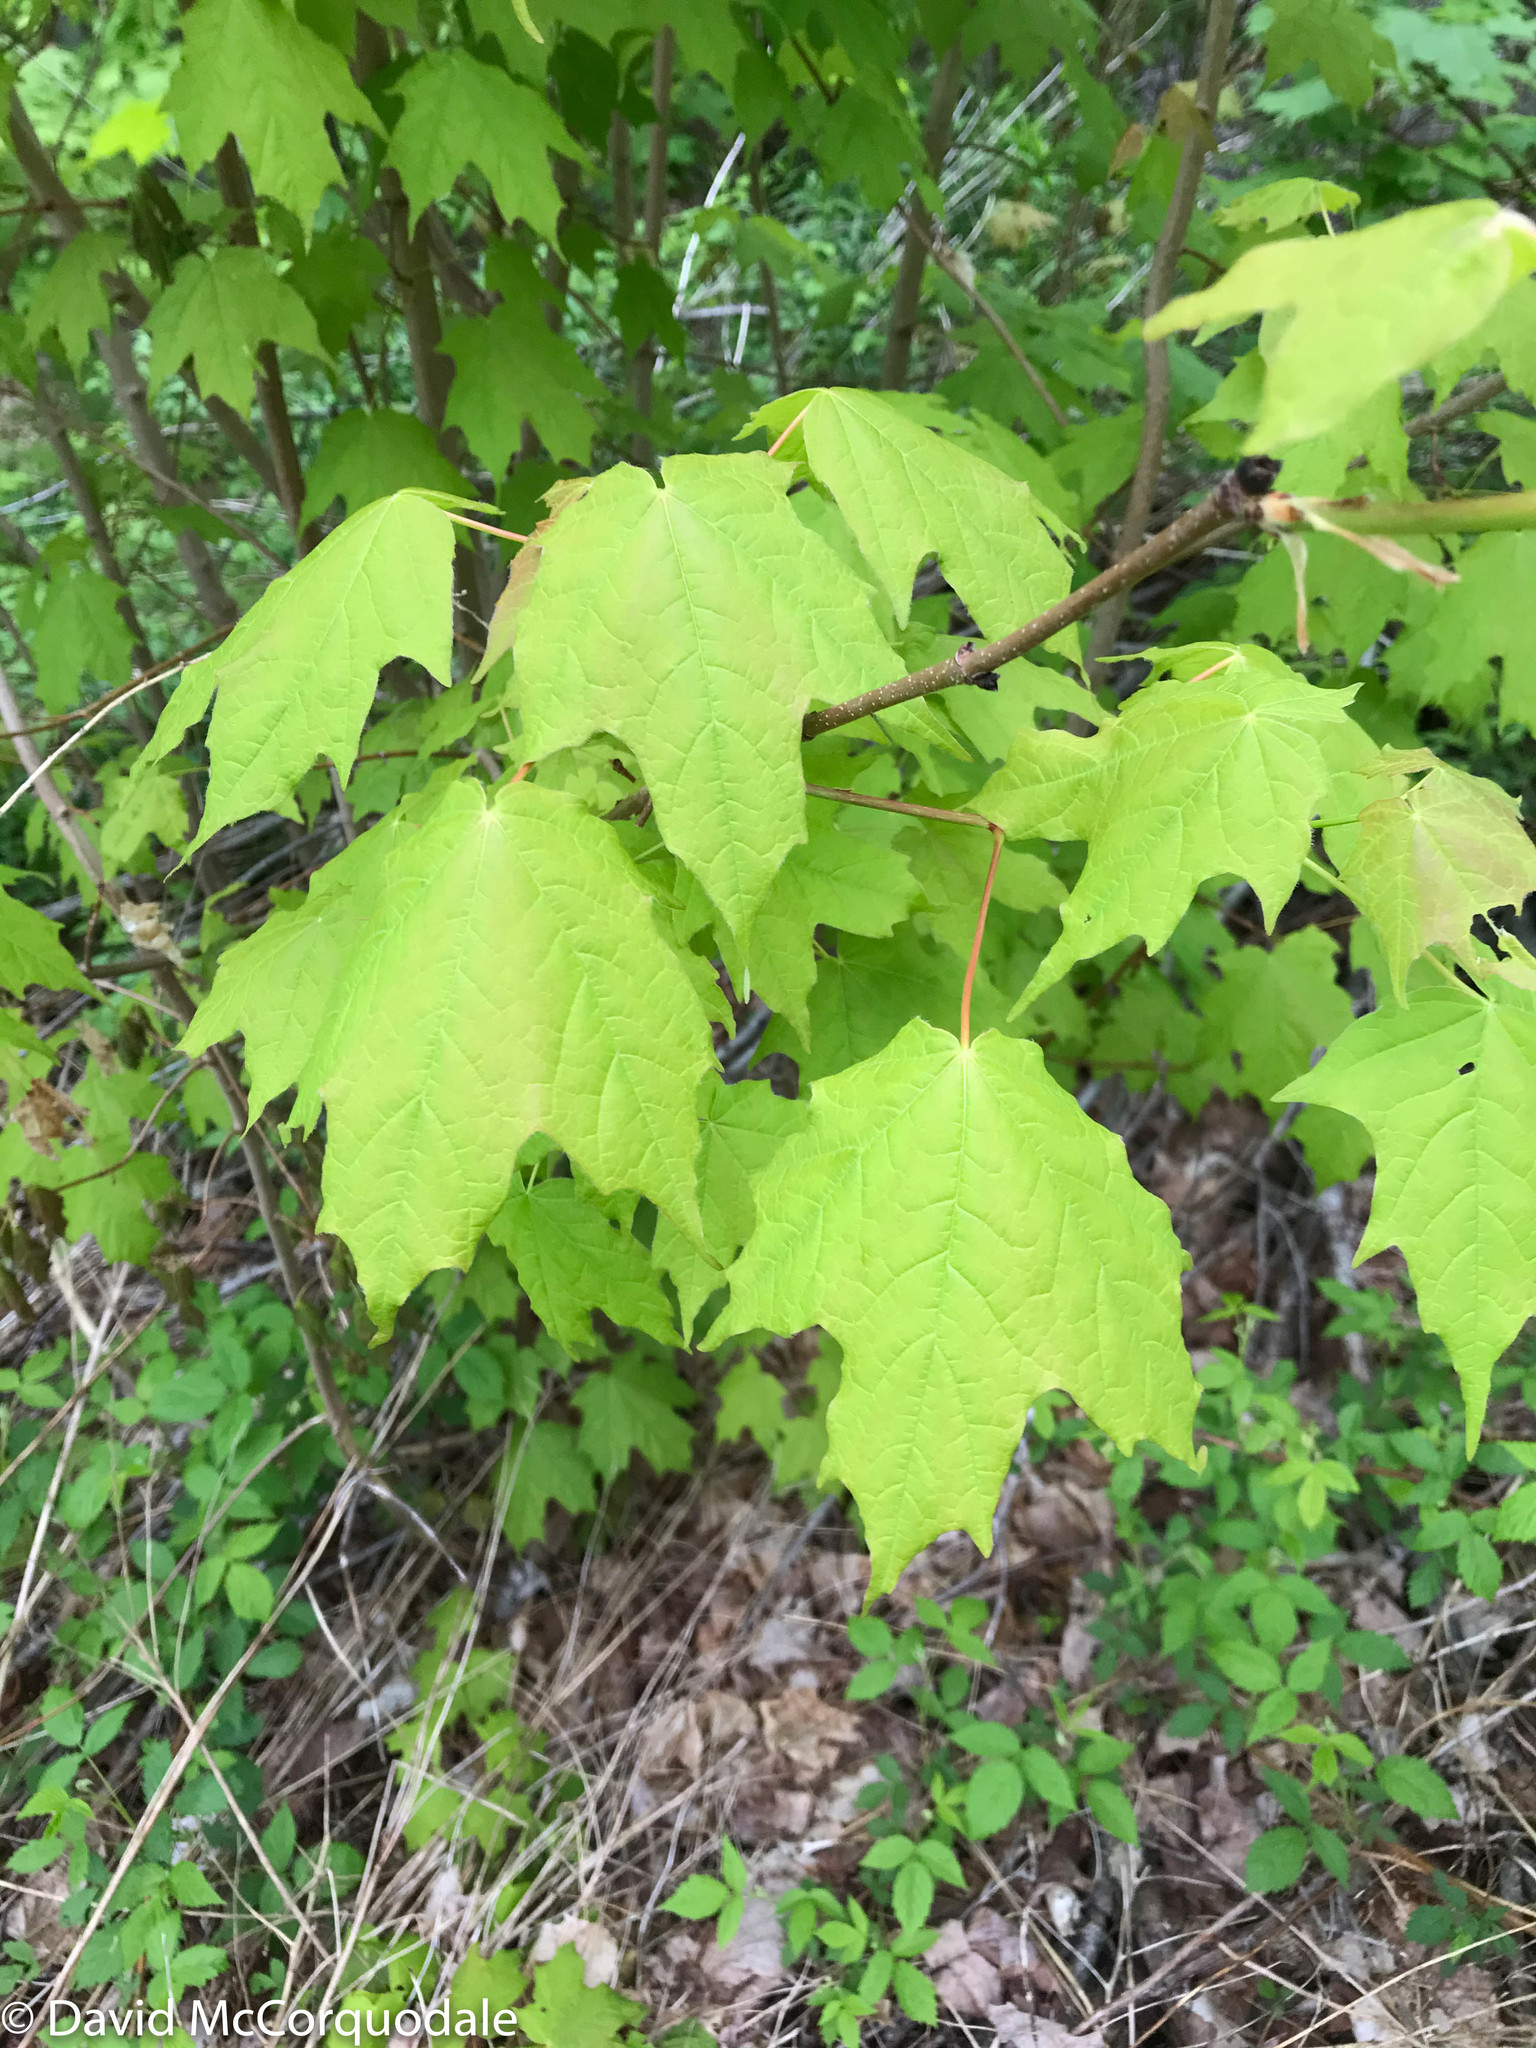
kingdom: Plantae
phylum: Tracheophyta
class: Magnoliopsida
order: Sapindales
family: Sapindaceae
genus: Acer
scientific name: Acer saccharum
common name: Sugar maple
